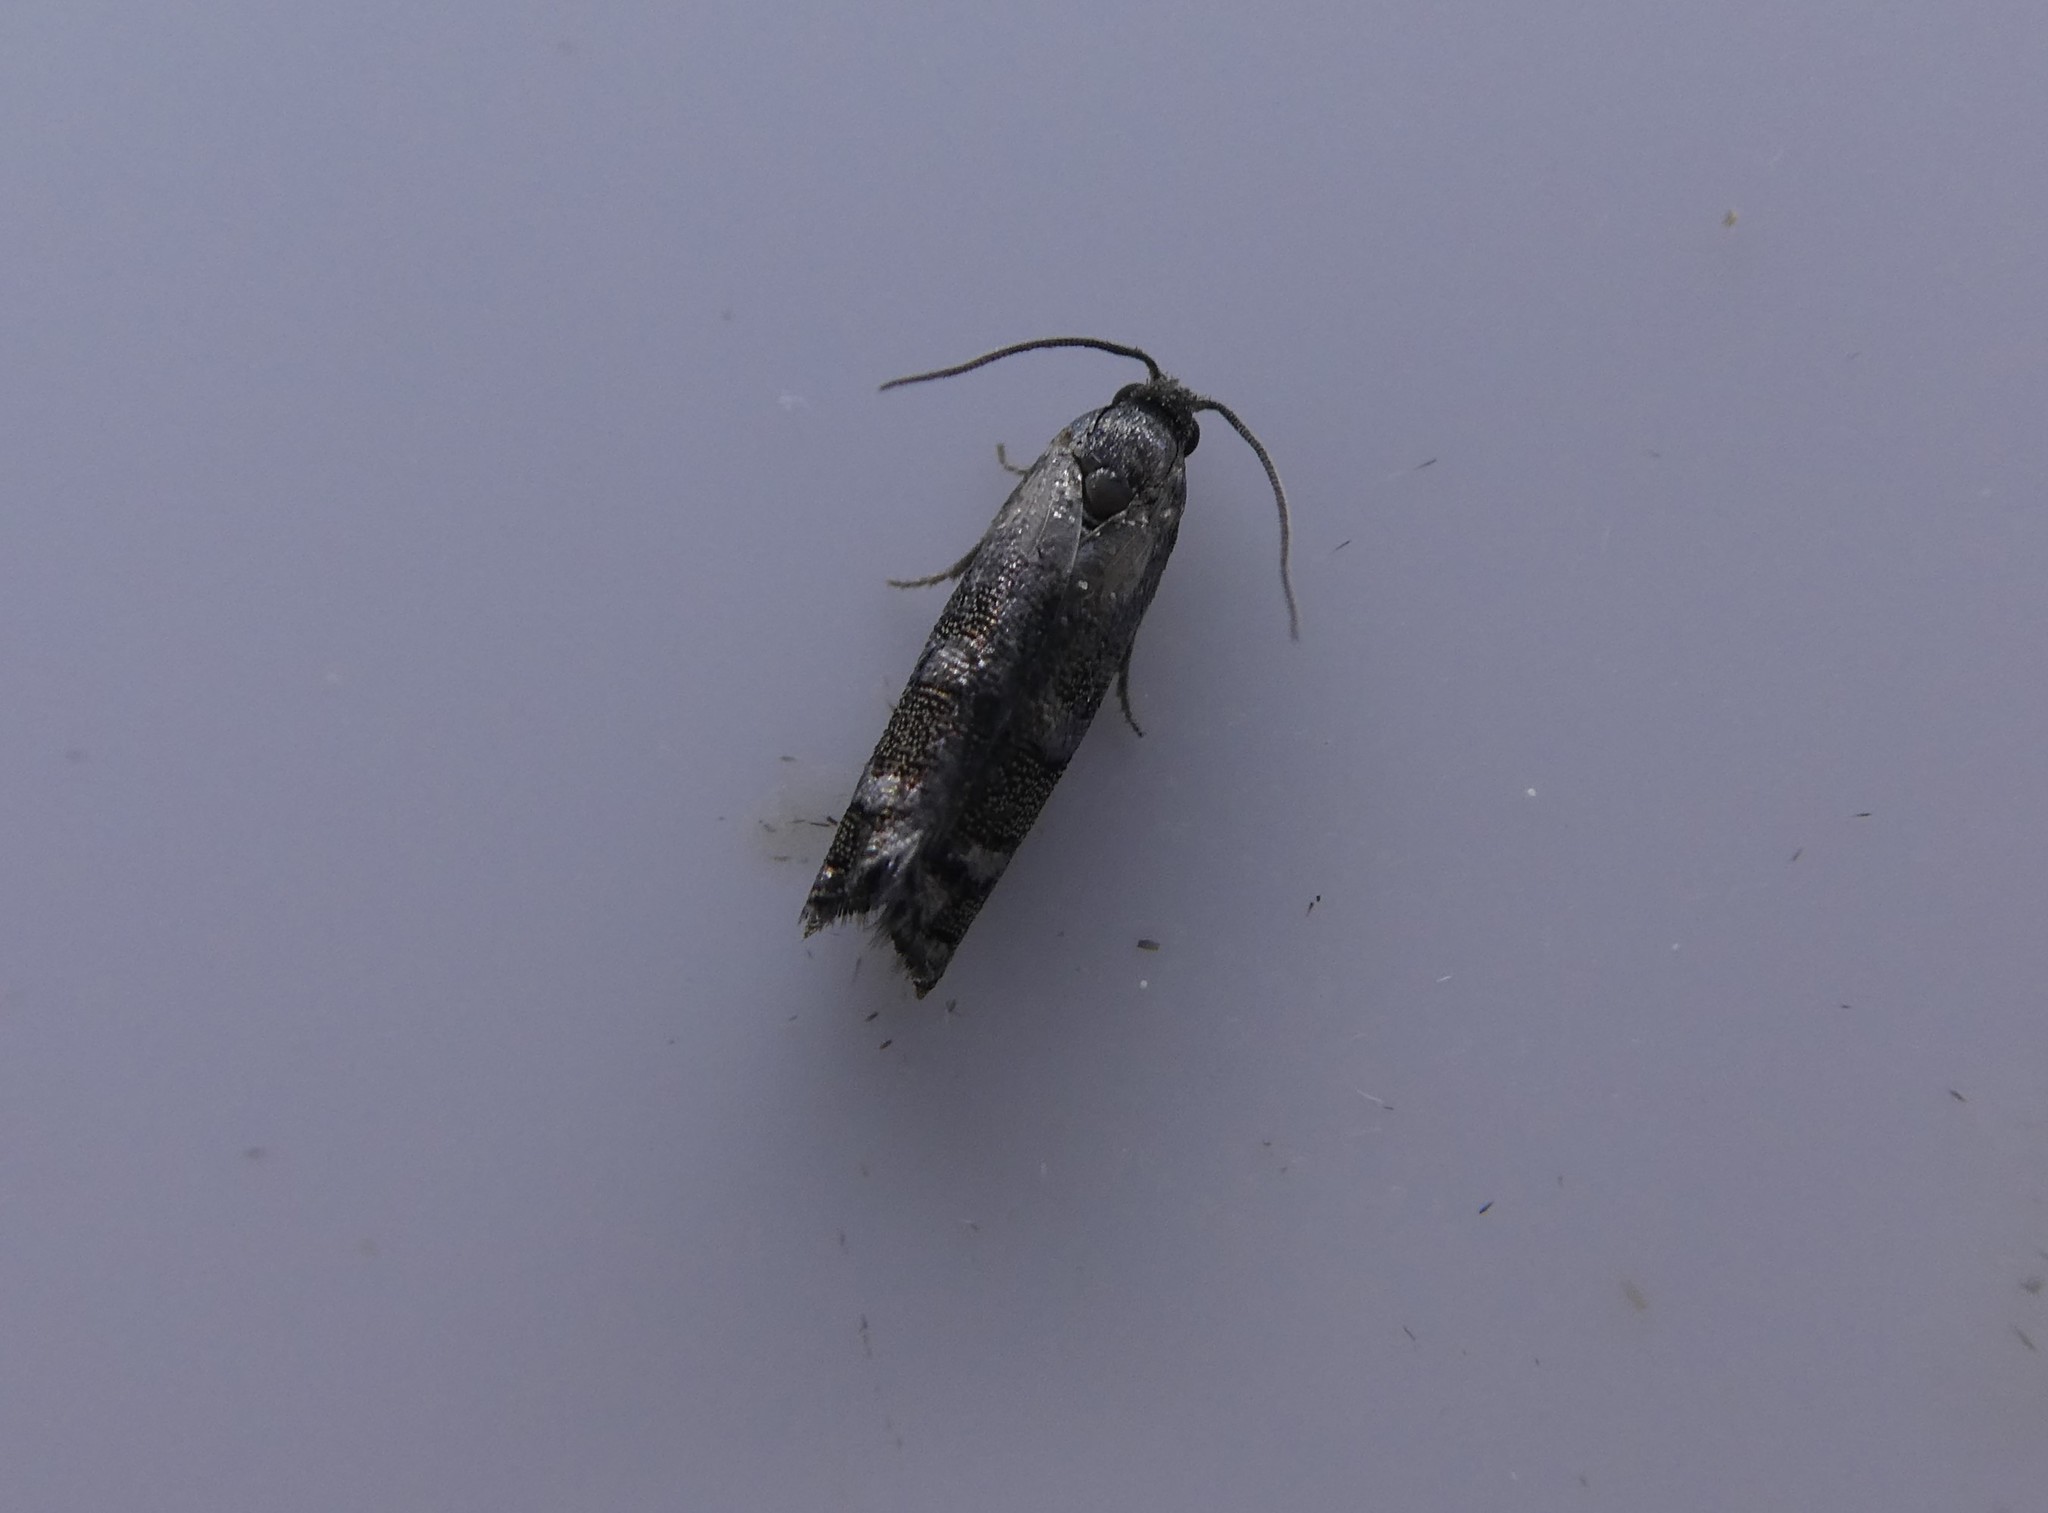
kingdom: Animalia
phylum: Arthropoda
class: Insecta
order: Lepidoptera
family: Tortricidae
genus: Cydia
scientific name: Cydia toreuta
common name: Eastern pine seedworm moth
